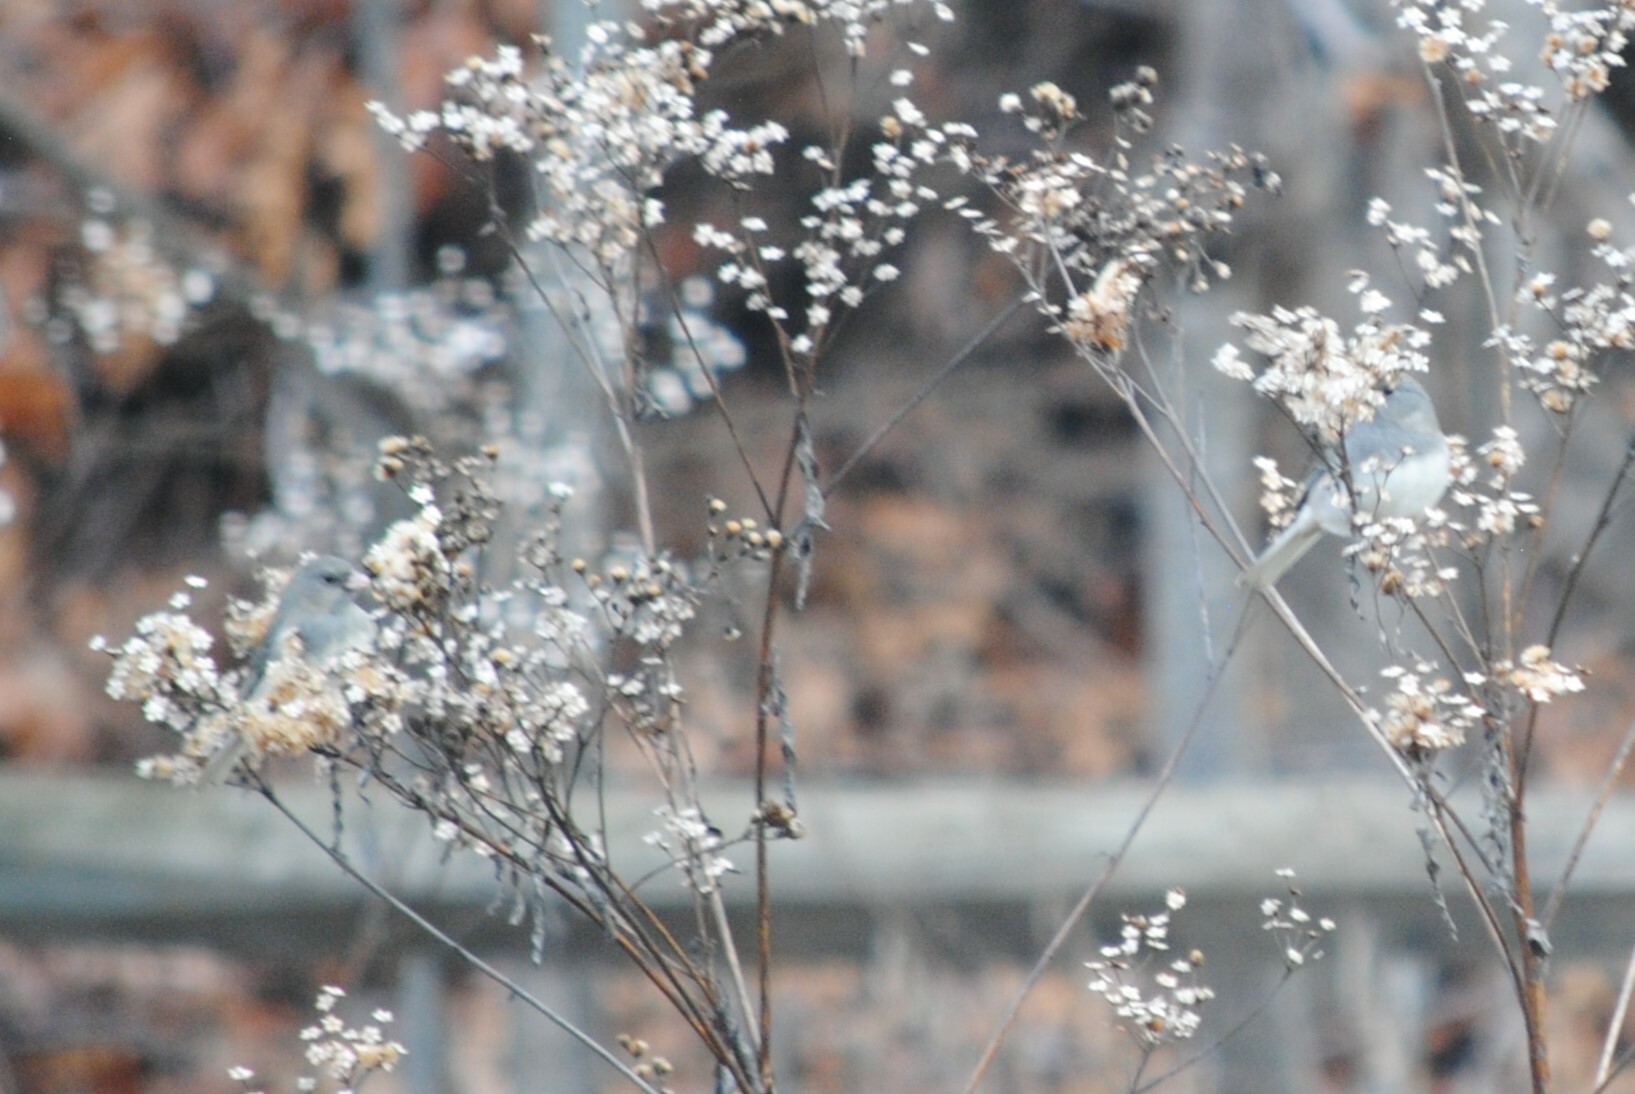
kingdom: Animalia
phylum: Chordata
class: Aves
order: Passeriformes
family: Passerellidae
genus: Junco
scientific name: Junco hyemalis
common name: Dark-eyed junco
